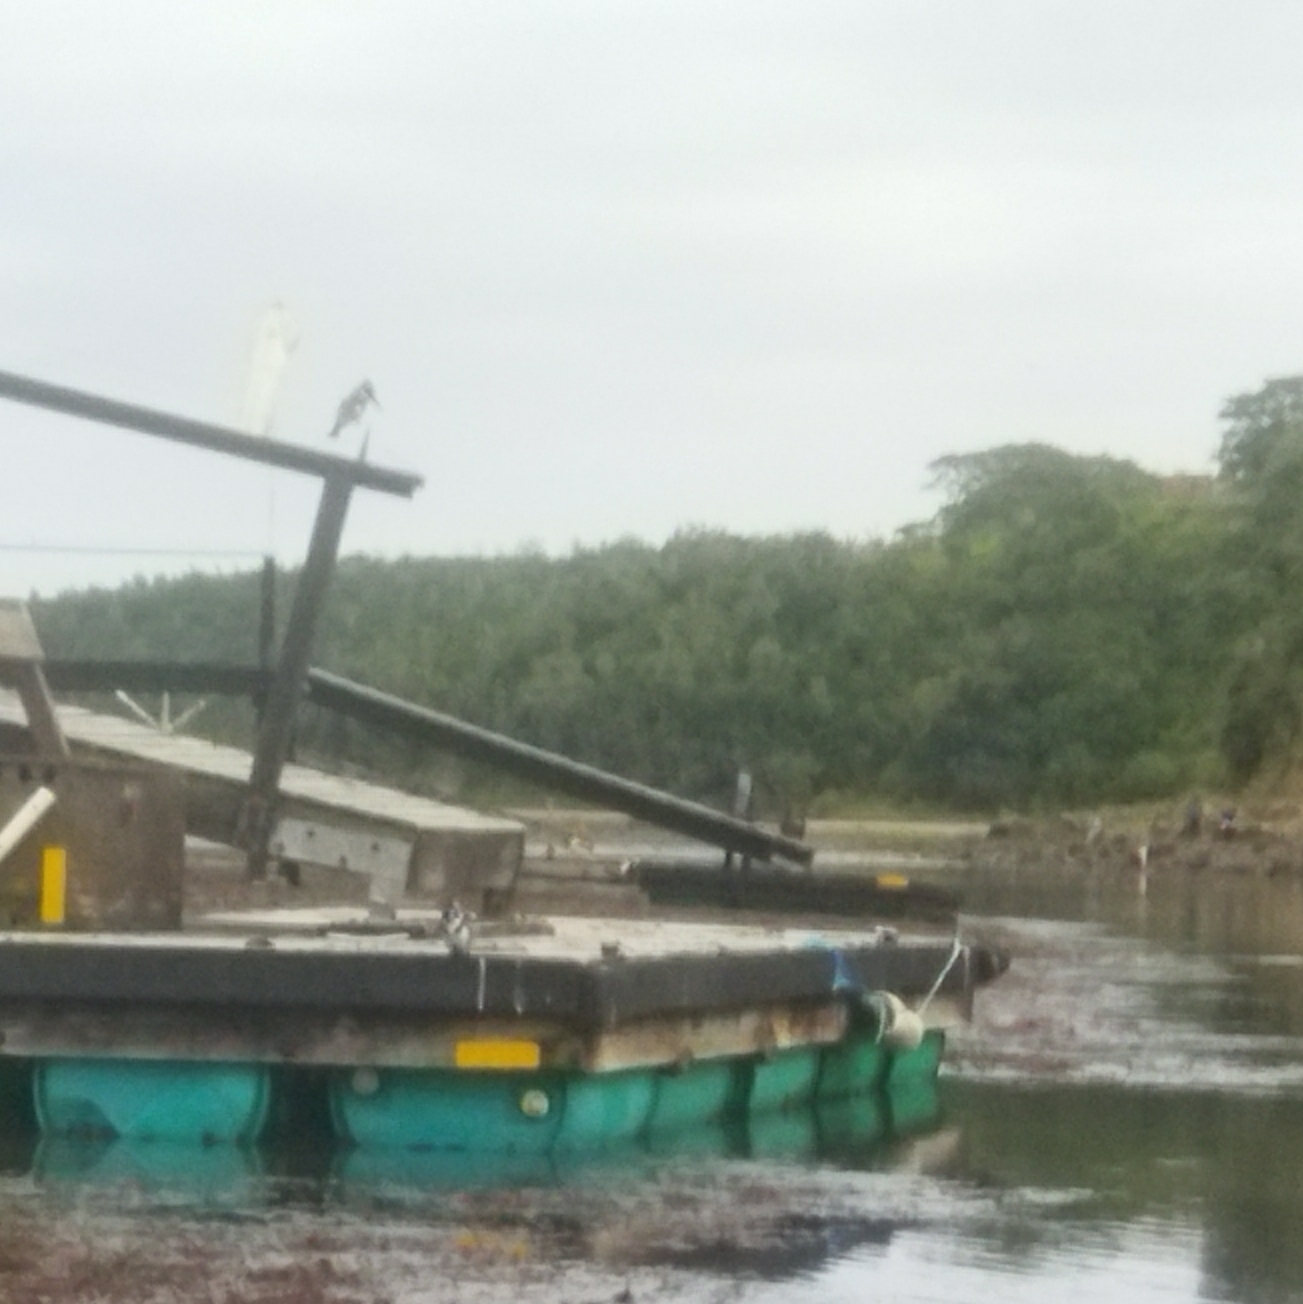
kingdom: Animalia
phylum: Chordata
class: Aves
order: Coraciiformes
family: Alcedinidae
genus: Ceryle
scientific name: Ceryle rudis
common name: Pied kingfisher
